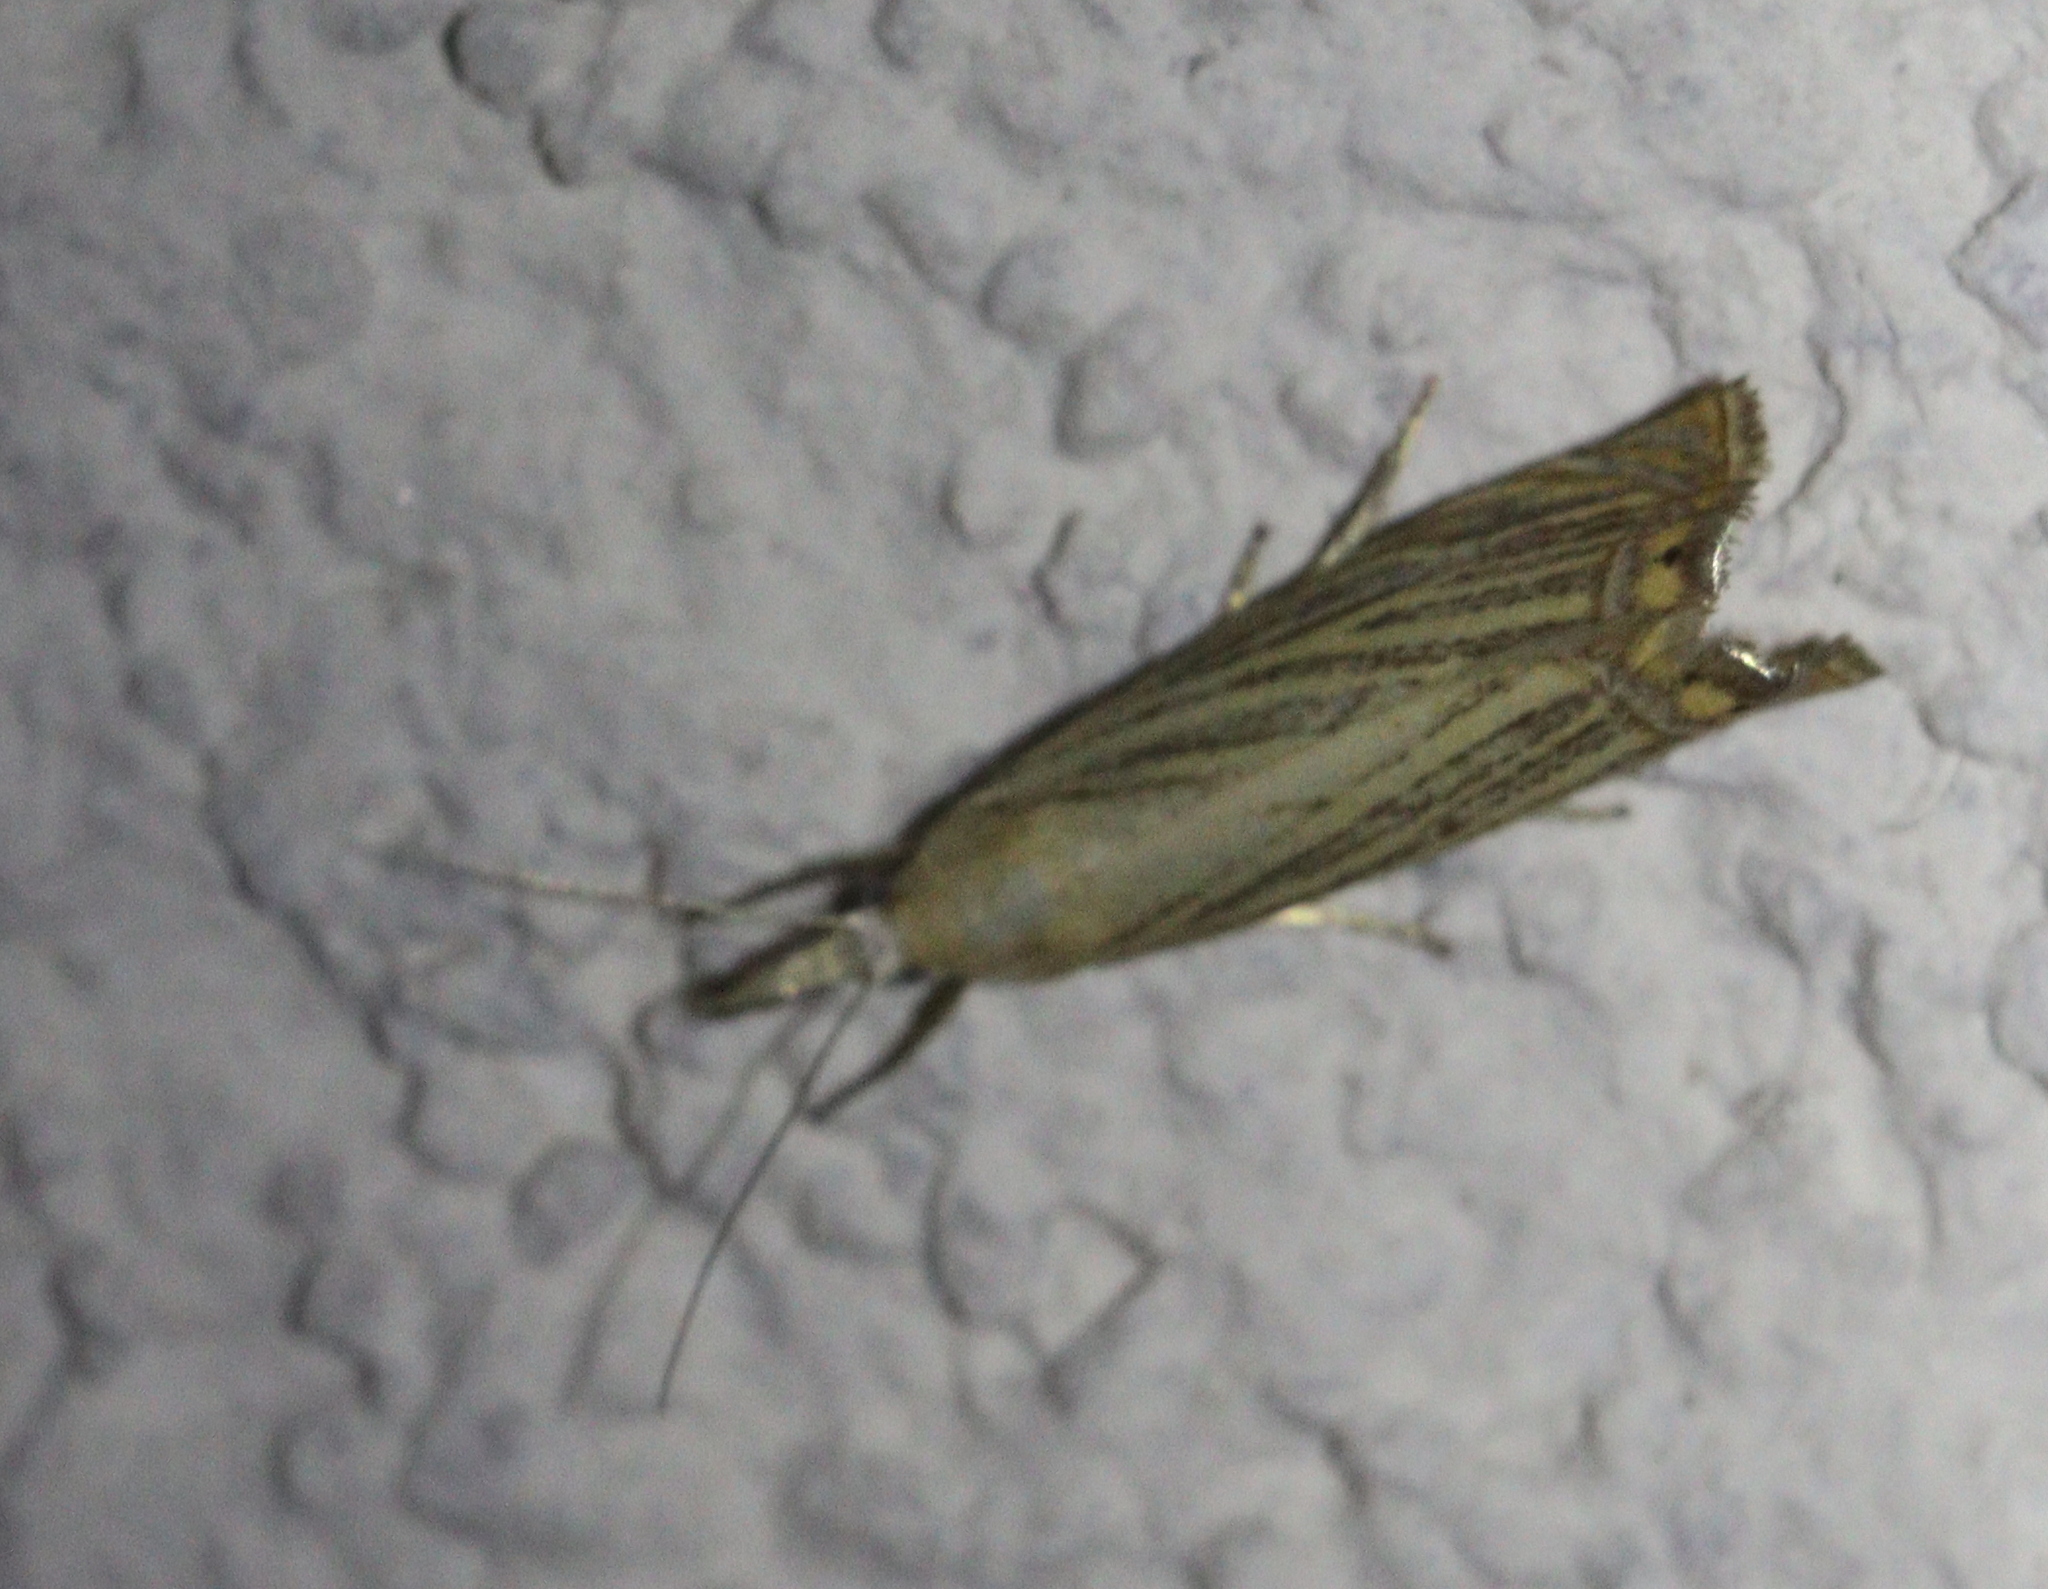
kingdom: Animalia
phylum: Arthropoda
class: Insecta
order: Lepidoptera
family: Crambidae
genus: Chrysoteuchia
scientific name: Chrysoteuchia culmella
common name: Garden grass-veneer
